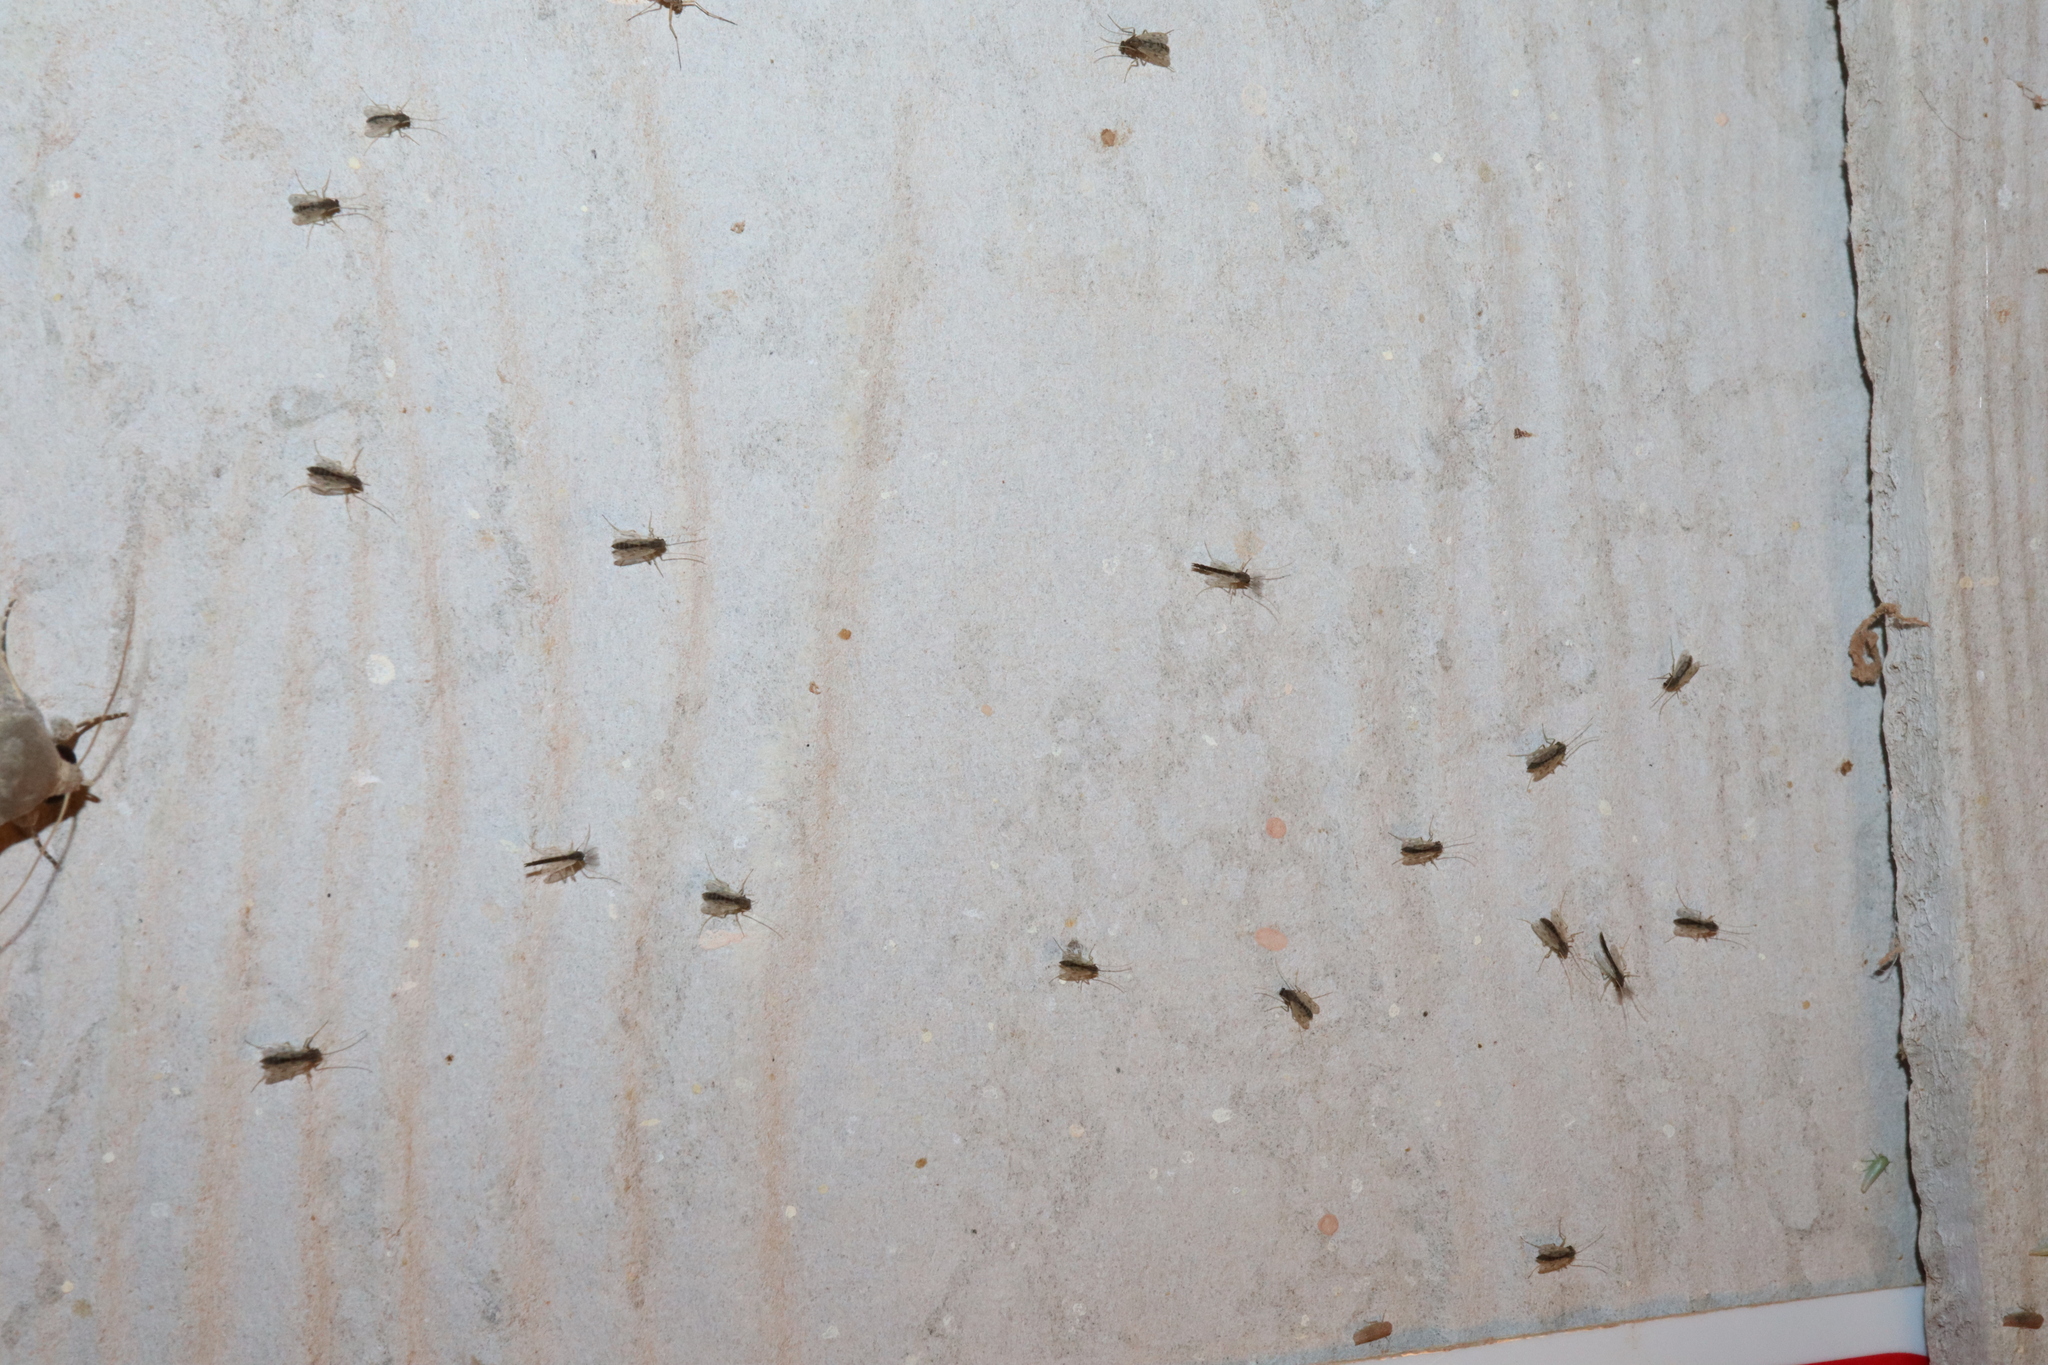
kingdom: Animalia
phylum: Arthropoda
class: Insecta
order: Diptera
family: Chironomidae
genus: Polypedilum
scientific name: Polypedilum nubifer
